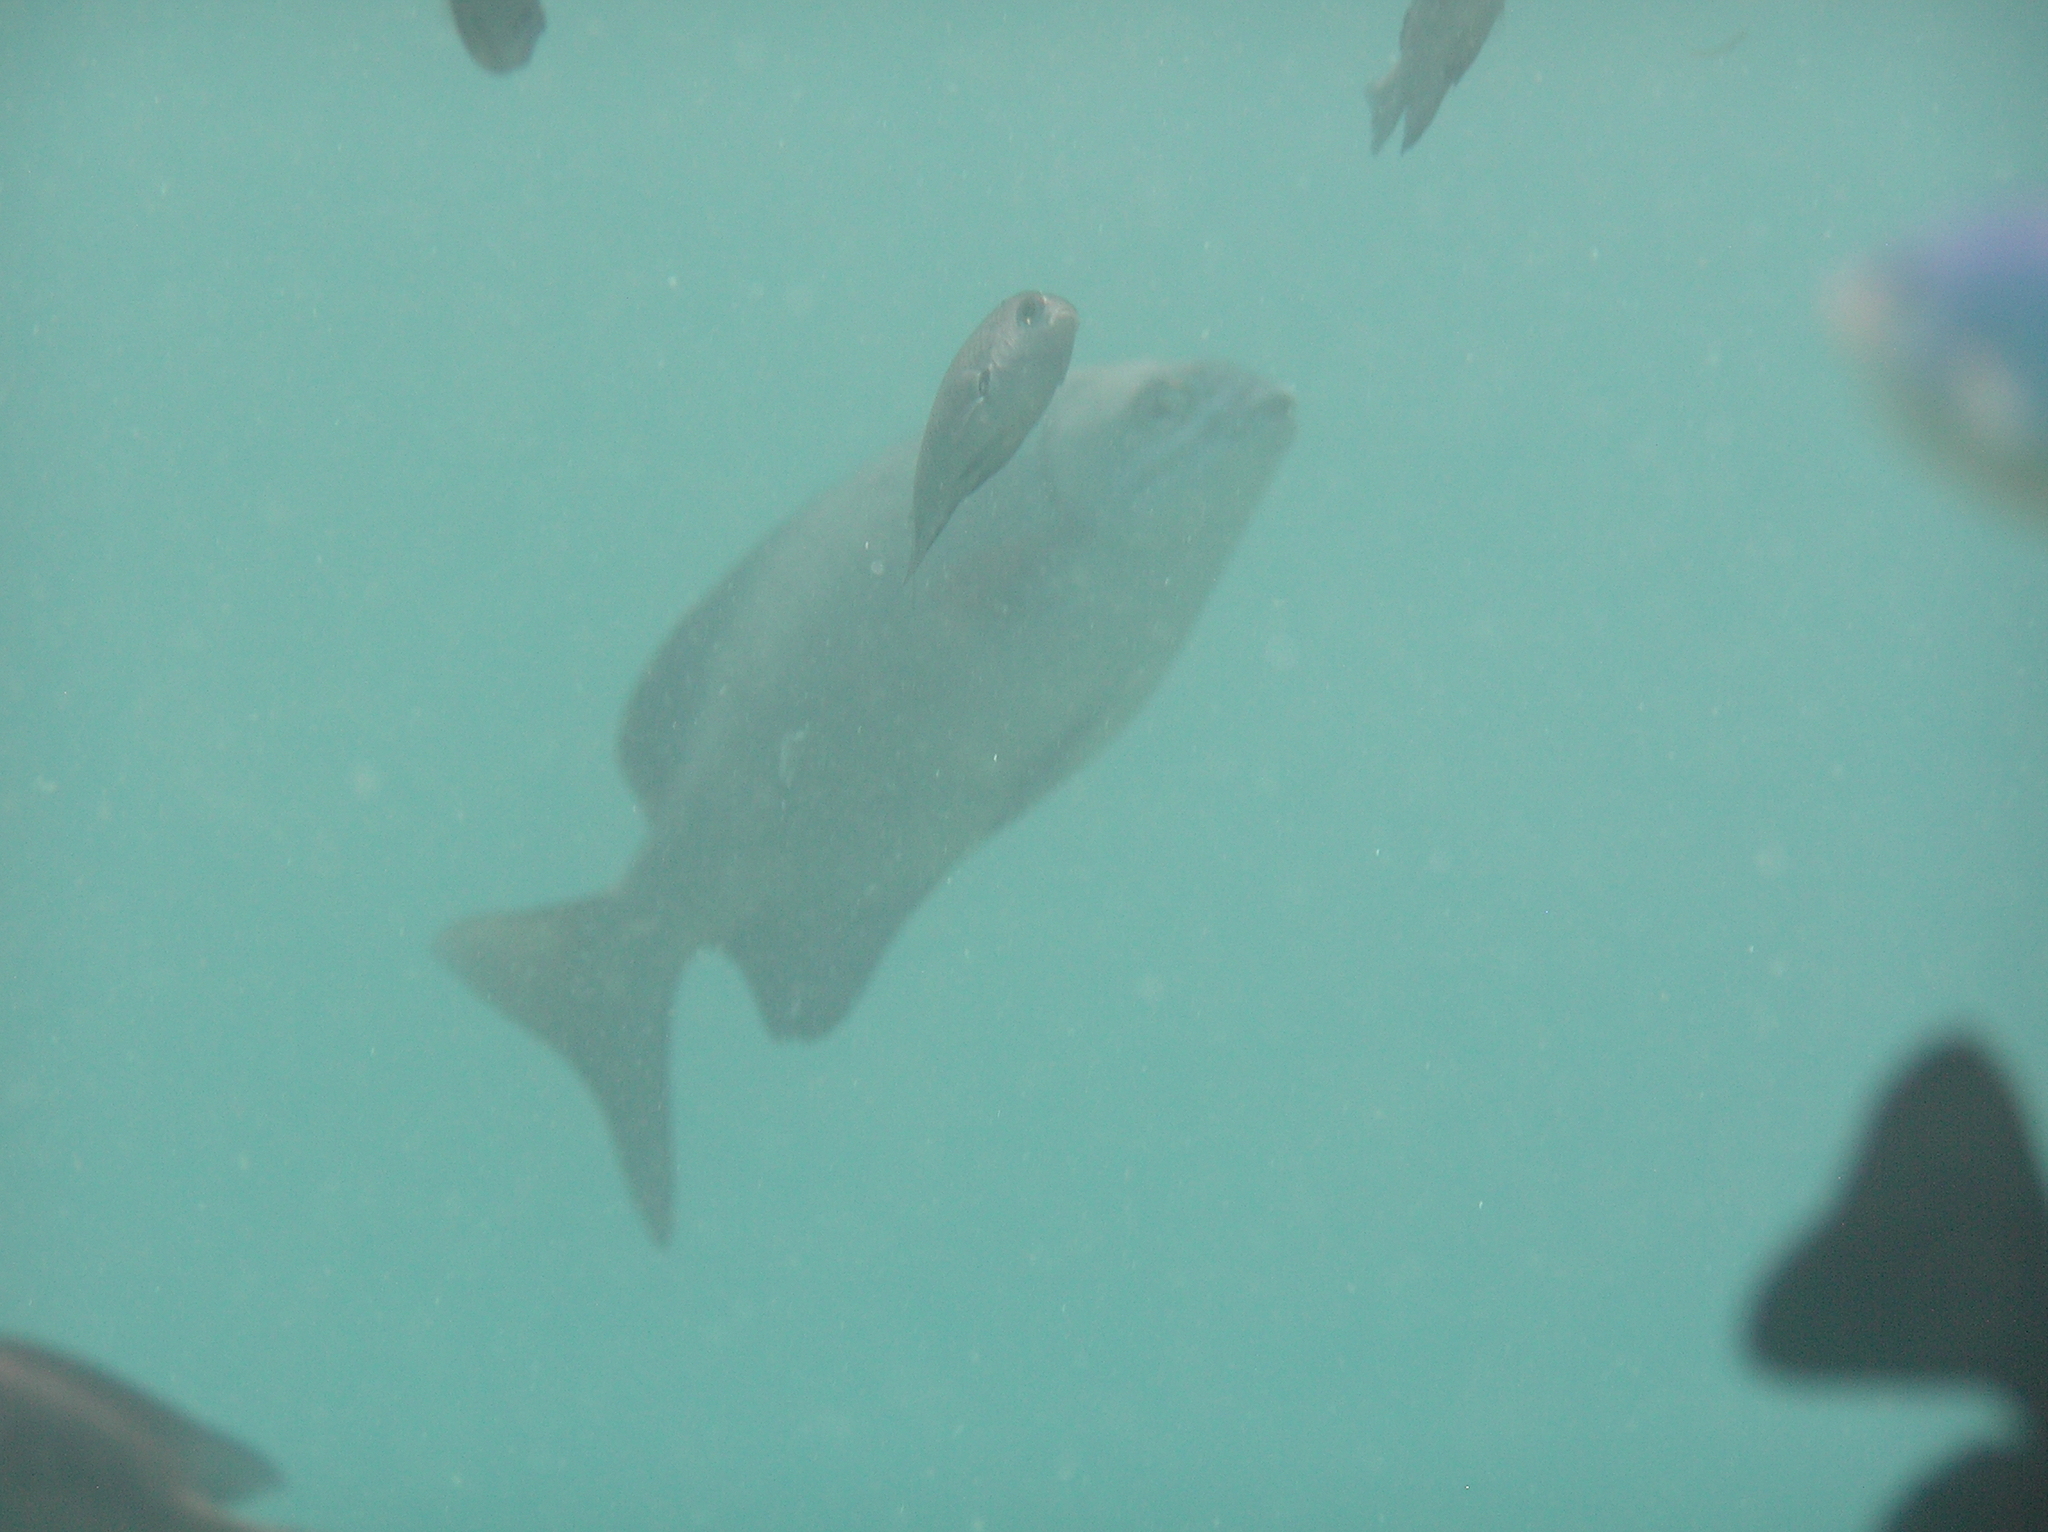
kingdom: Animalia
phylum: Chordata
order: Perciformes
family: Kyphosidae
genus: Kyphosus
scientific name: Kyphosus cinerascens
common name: Topsail drummer
